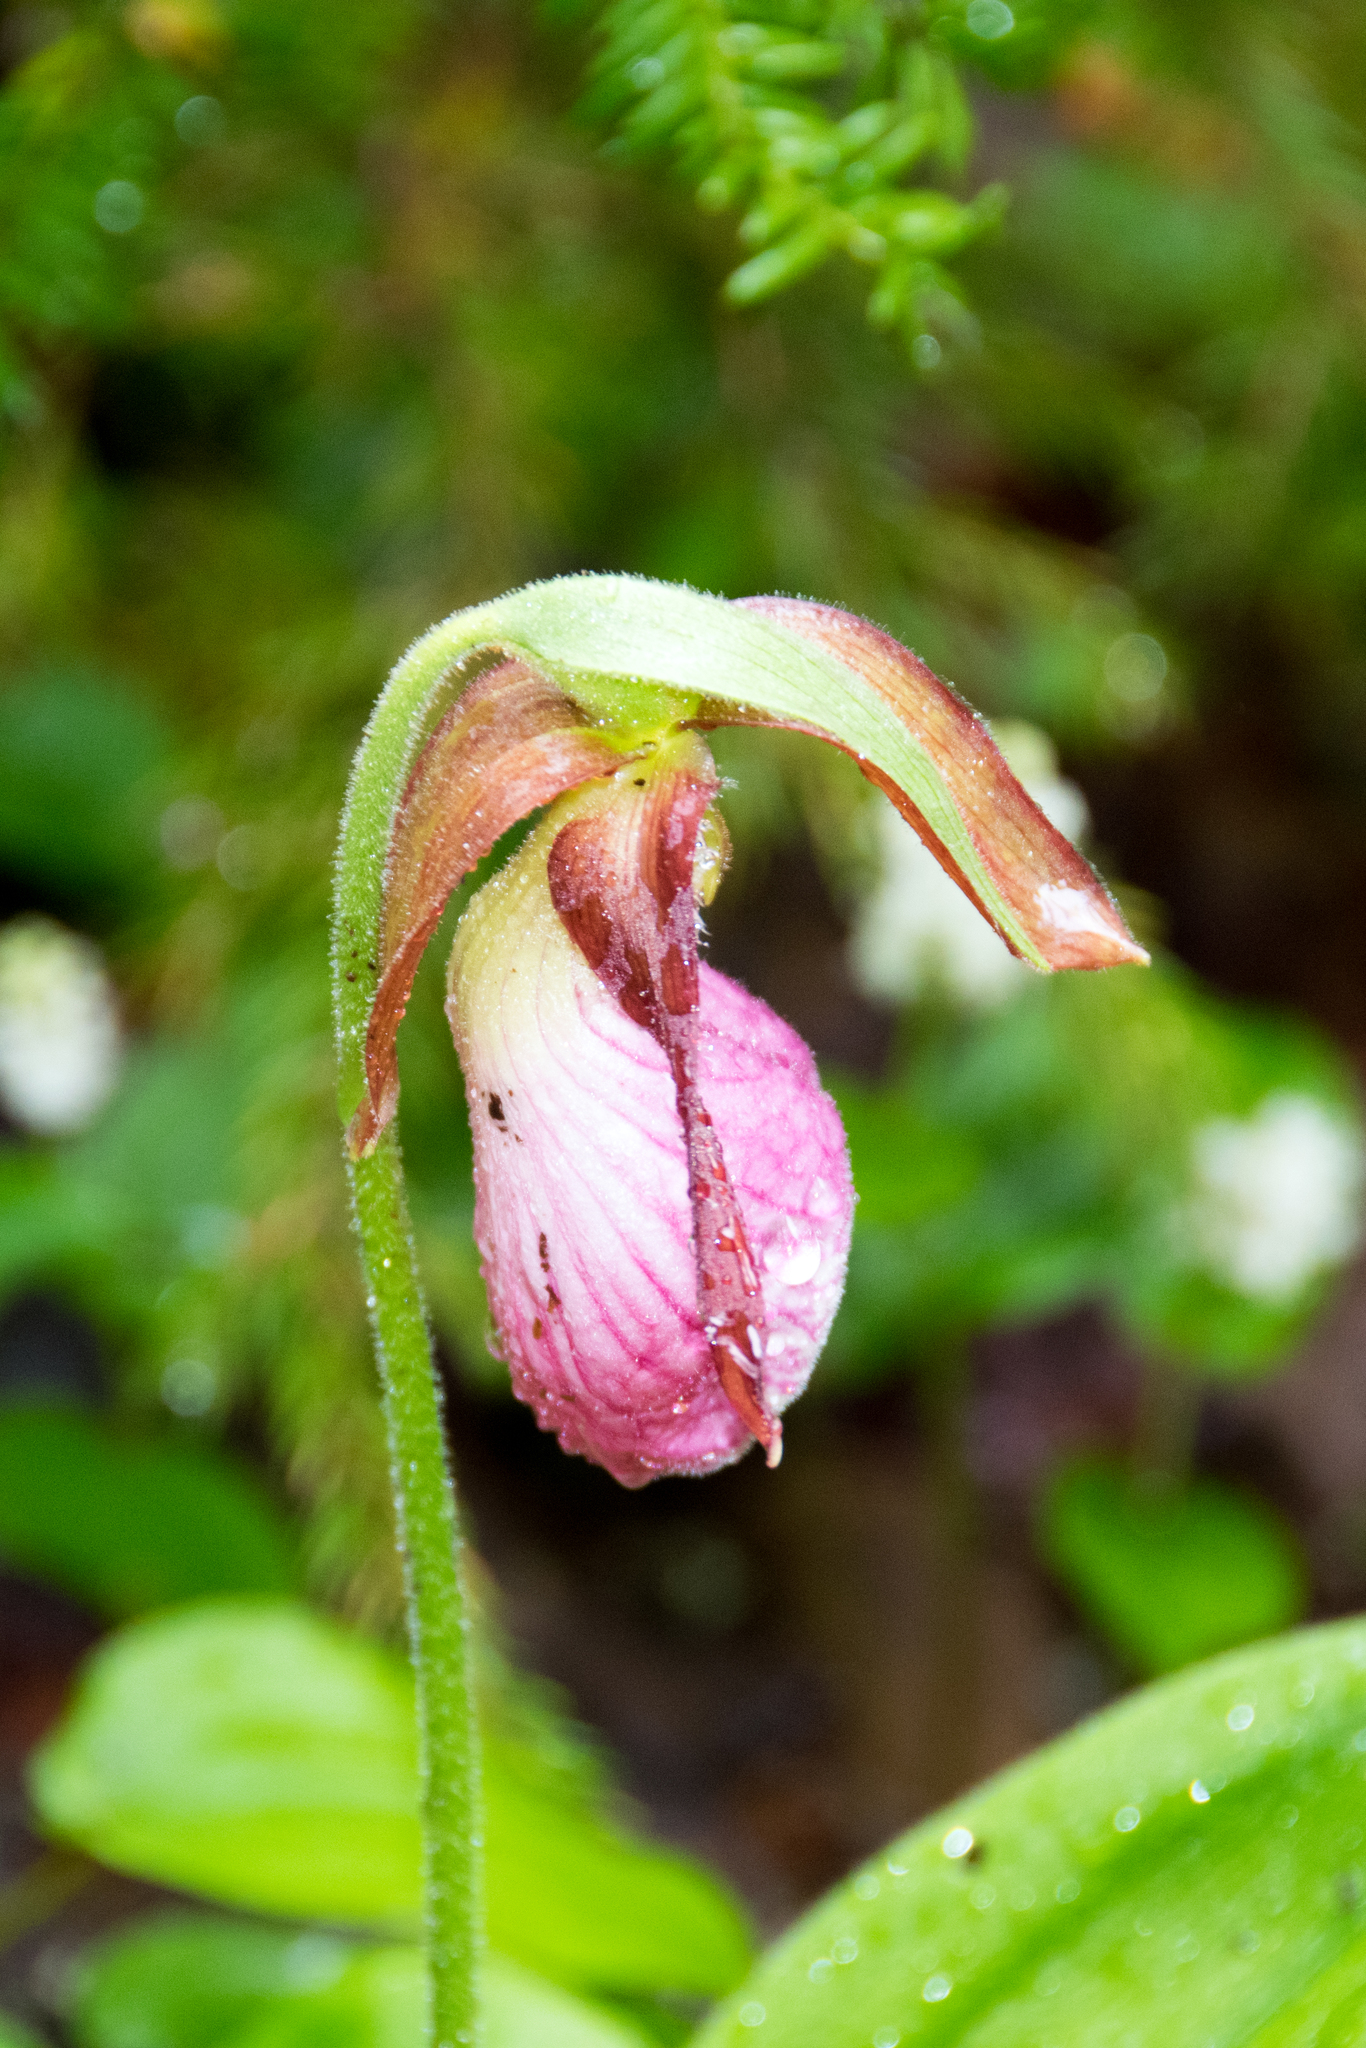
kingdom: Plantae
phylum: Tracheophyta
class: Liliopsida
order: Asparagales
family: Orchidaceae
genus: Cypripedium
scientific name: Cypripedium acaule
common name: Pink lady's-slipper
